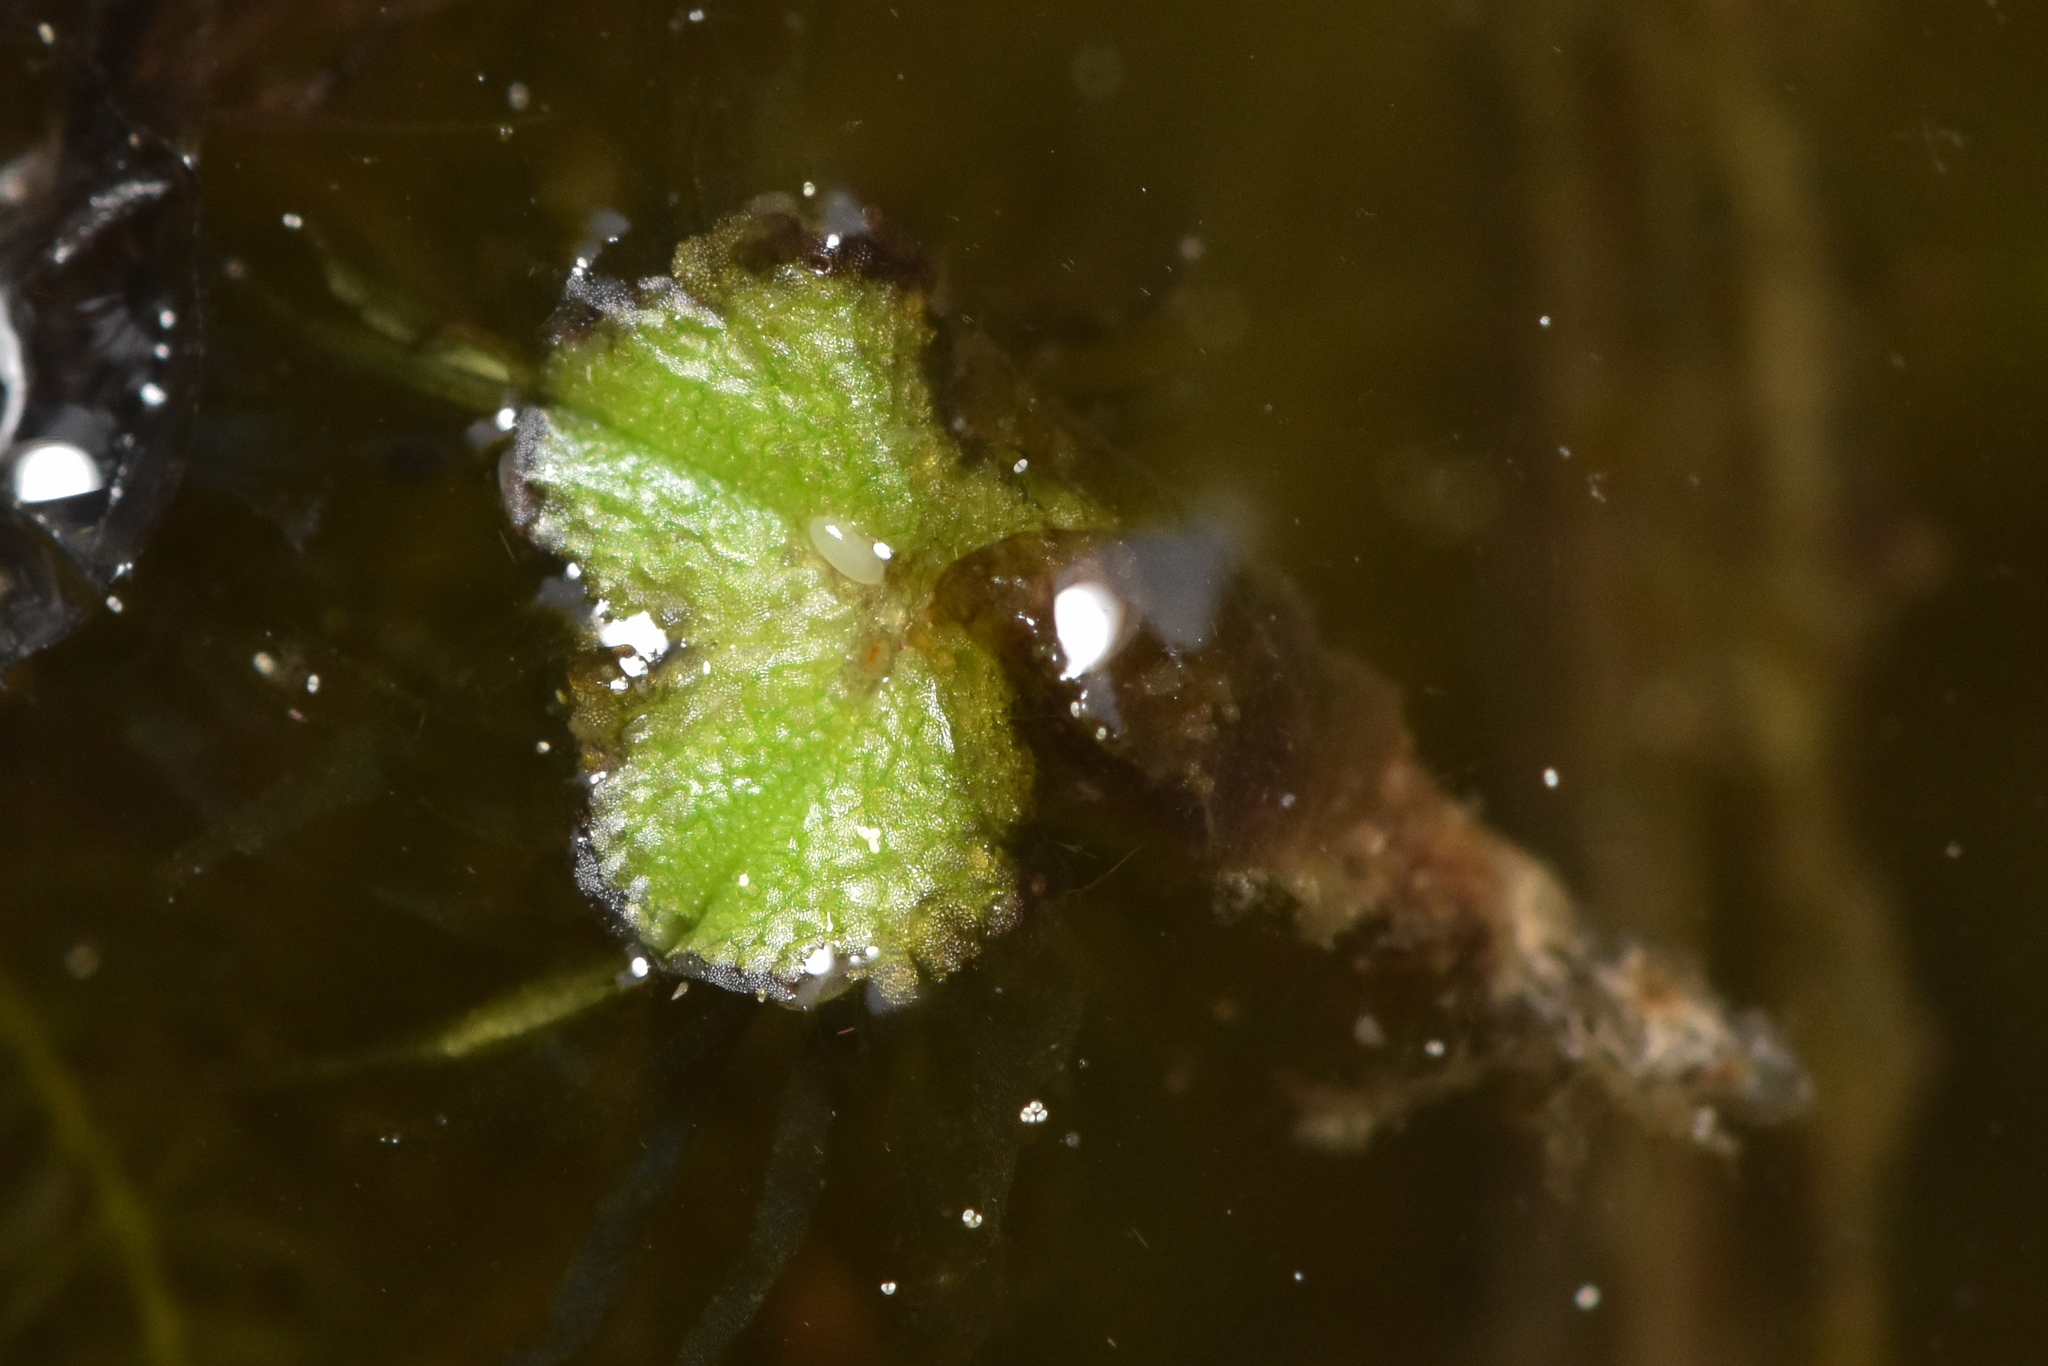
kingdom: Plantae
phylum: Marchantiophyta
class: Marchantiopsida
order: Marchantiales
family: Ricciaceae
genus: Ricciocarpos
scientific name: Ricciocarpos natans
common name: Purple-fringed liverwort
